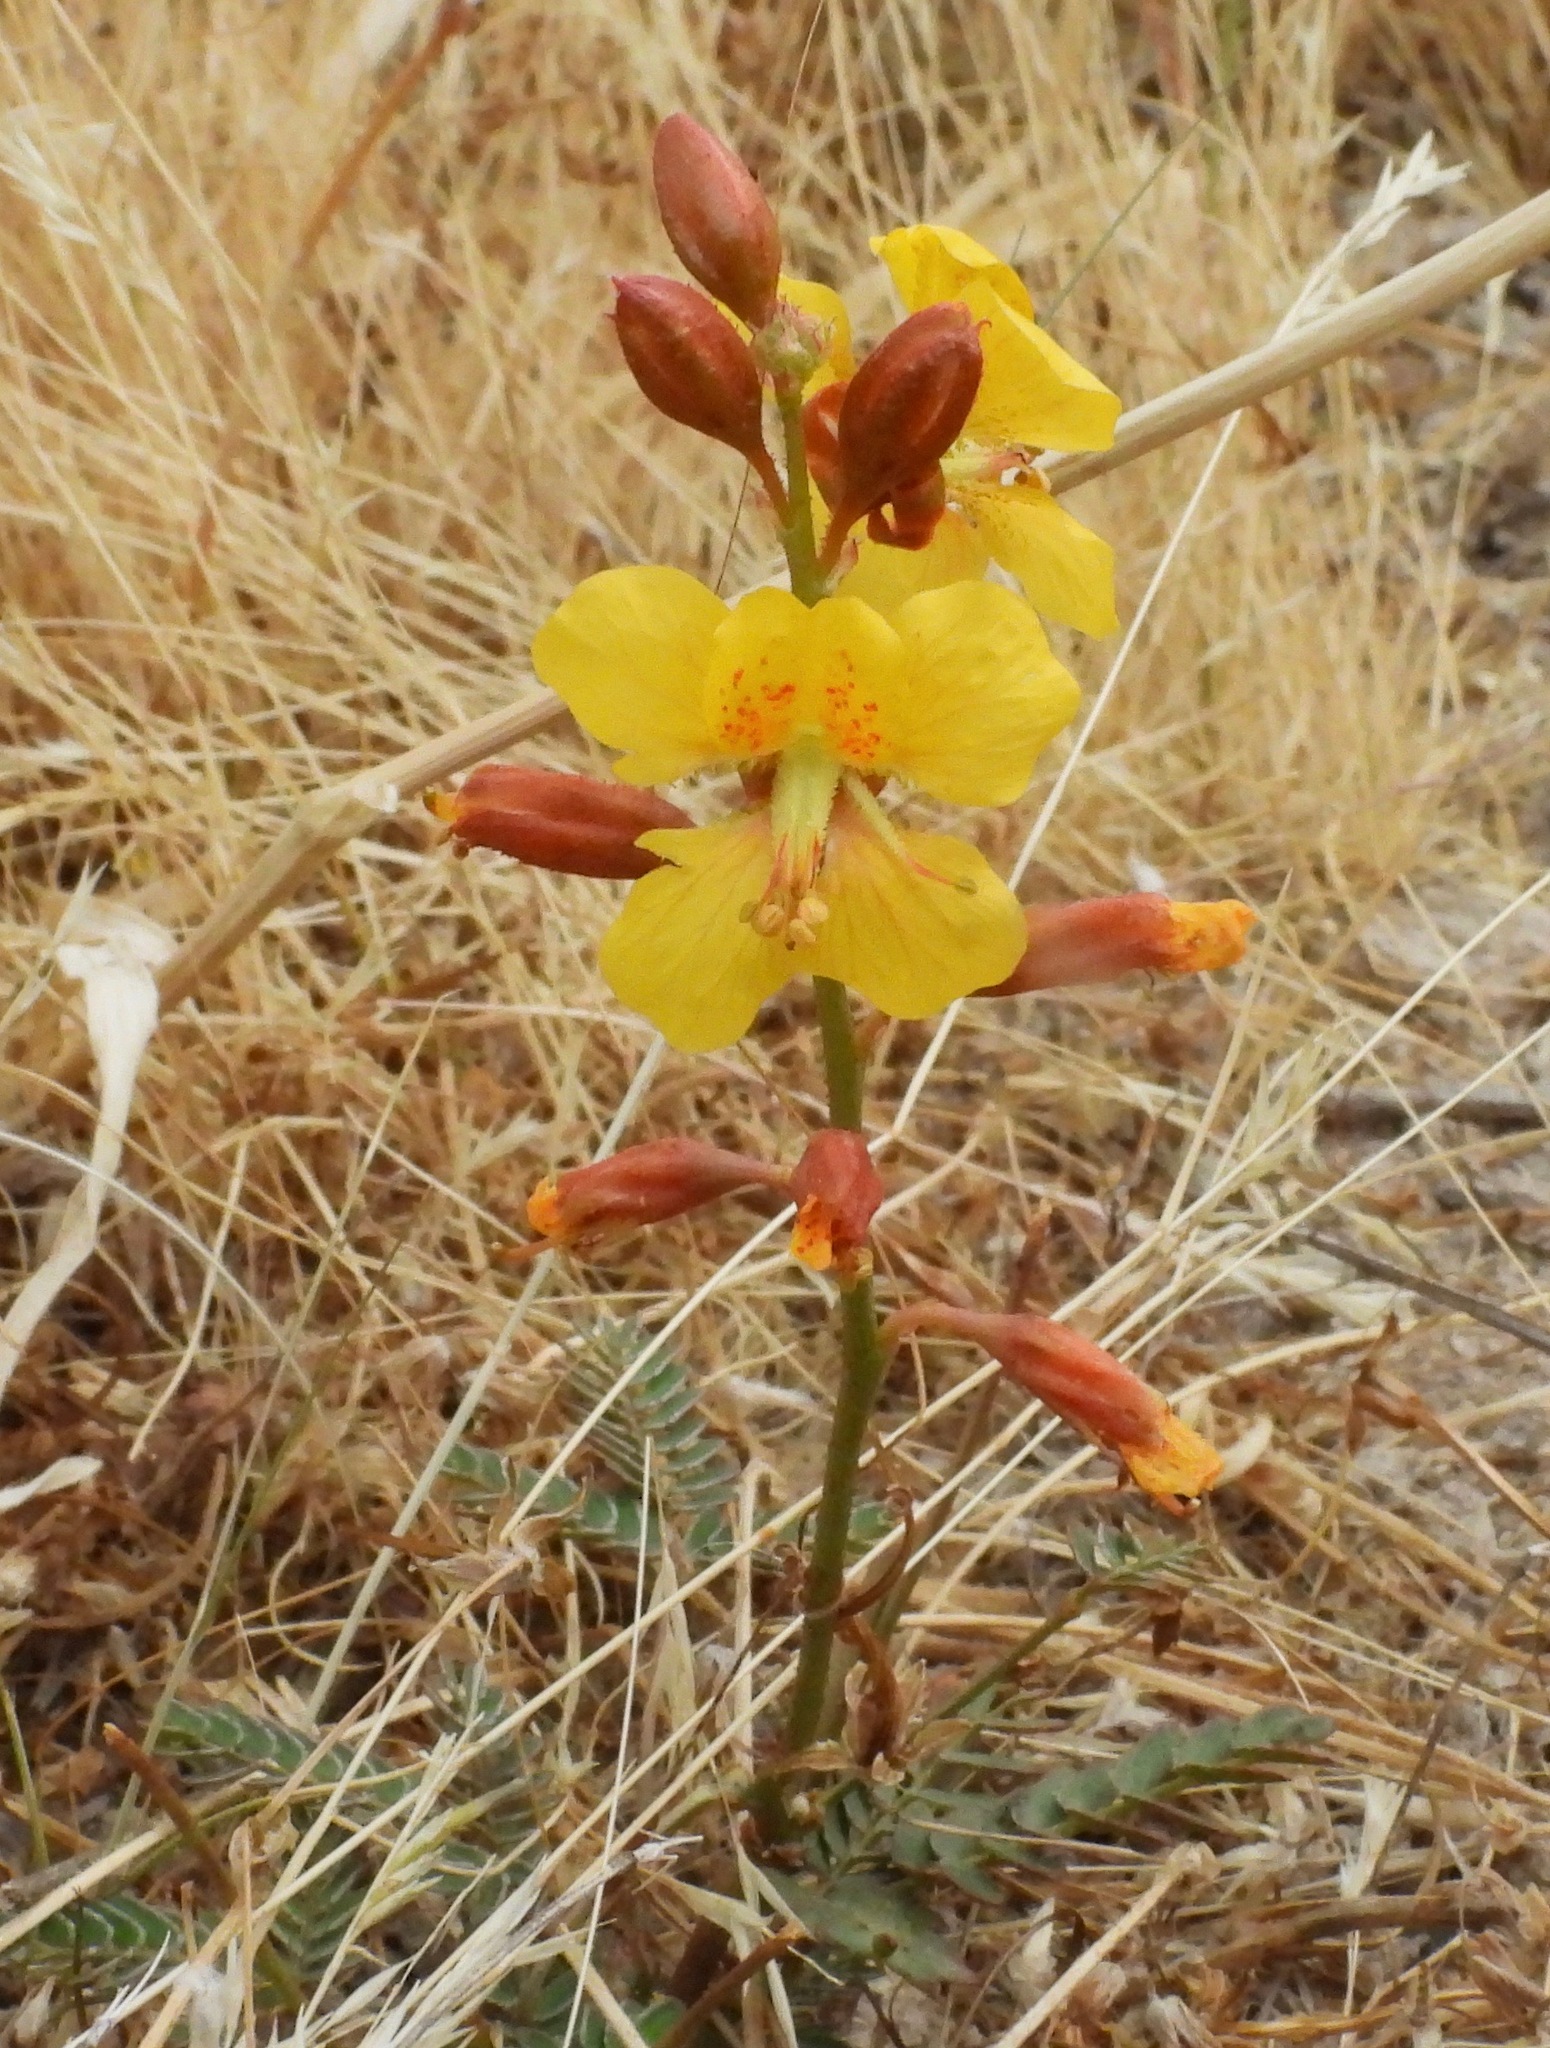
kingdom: Plantae
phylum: Tracheophyta
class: Magnoliopsida
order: Fabales
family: Fabaceae
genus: Hoffmannseggia
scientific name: Hoffmannseggia trifoliata
